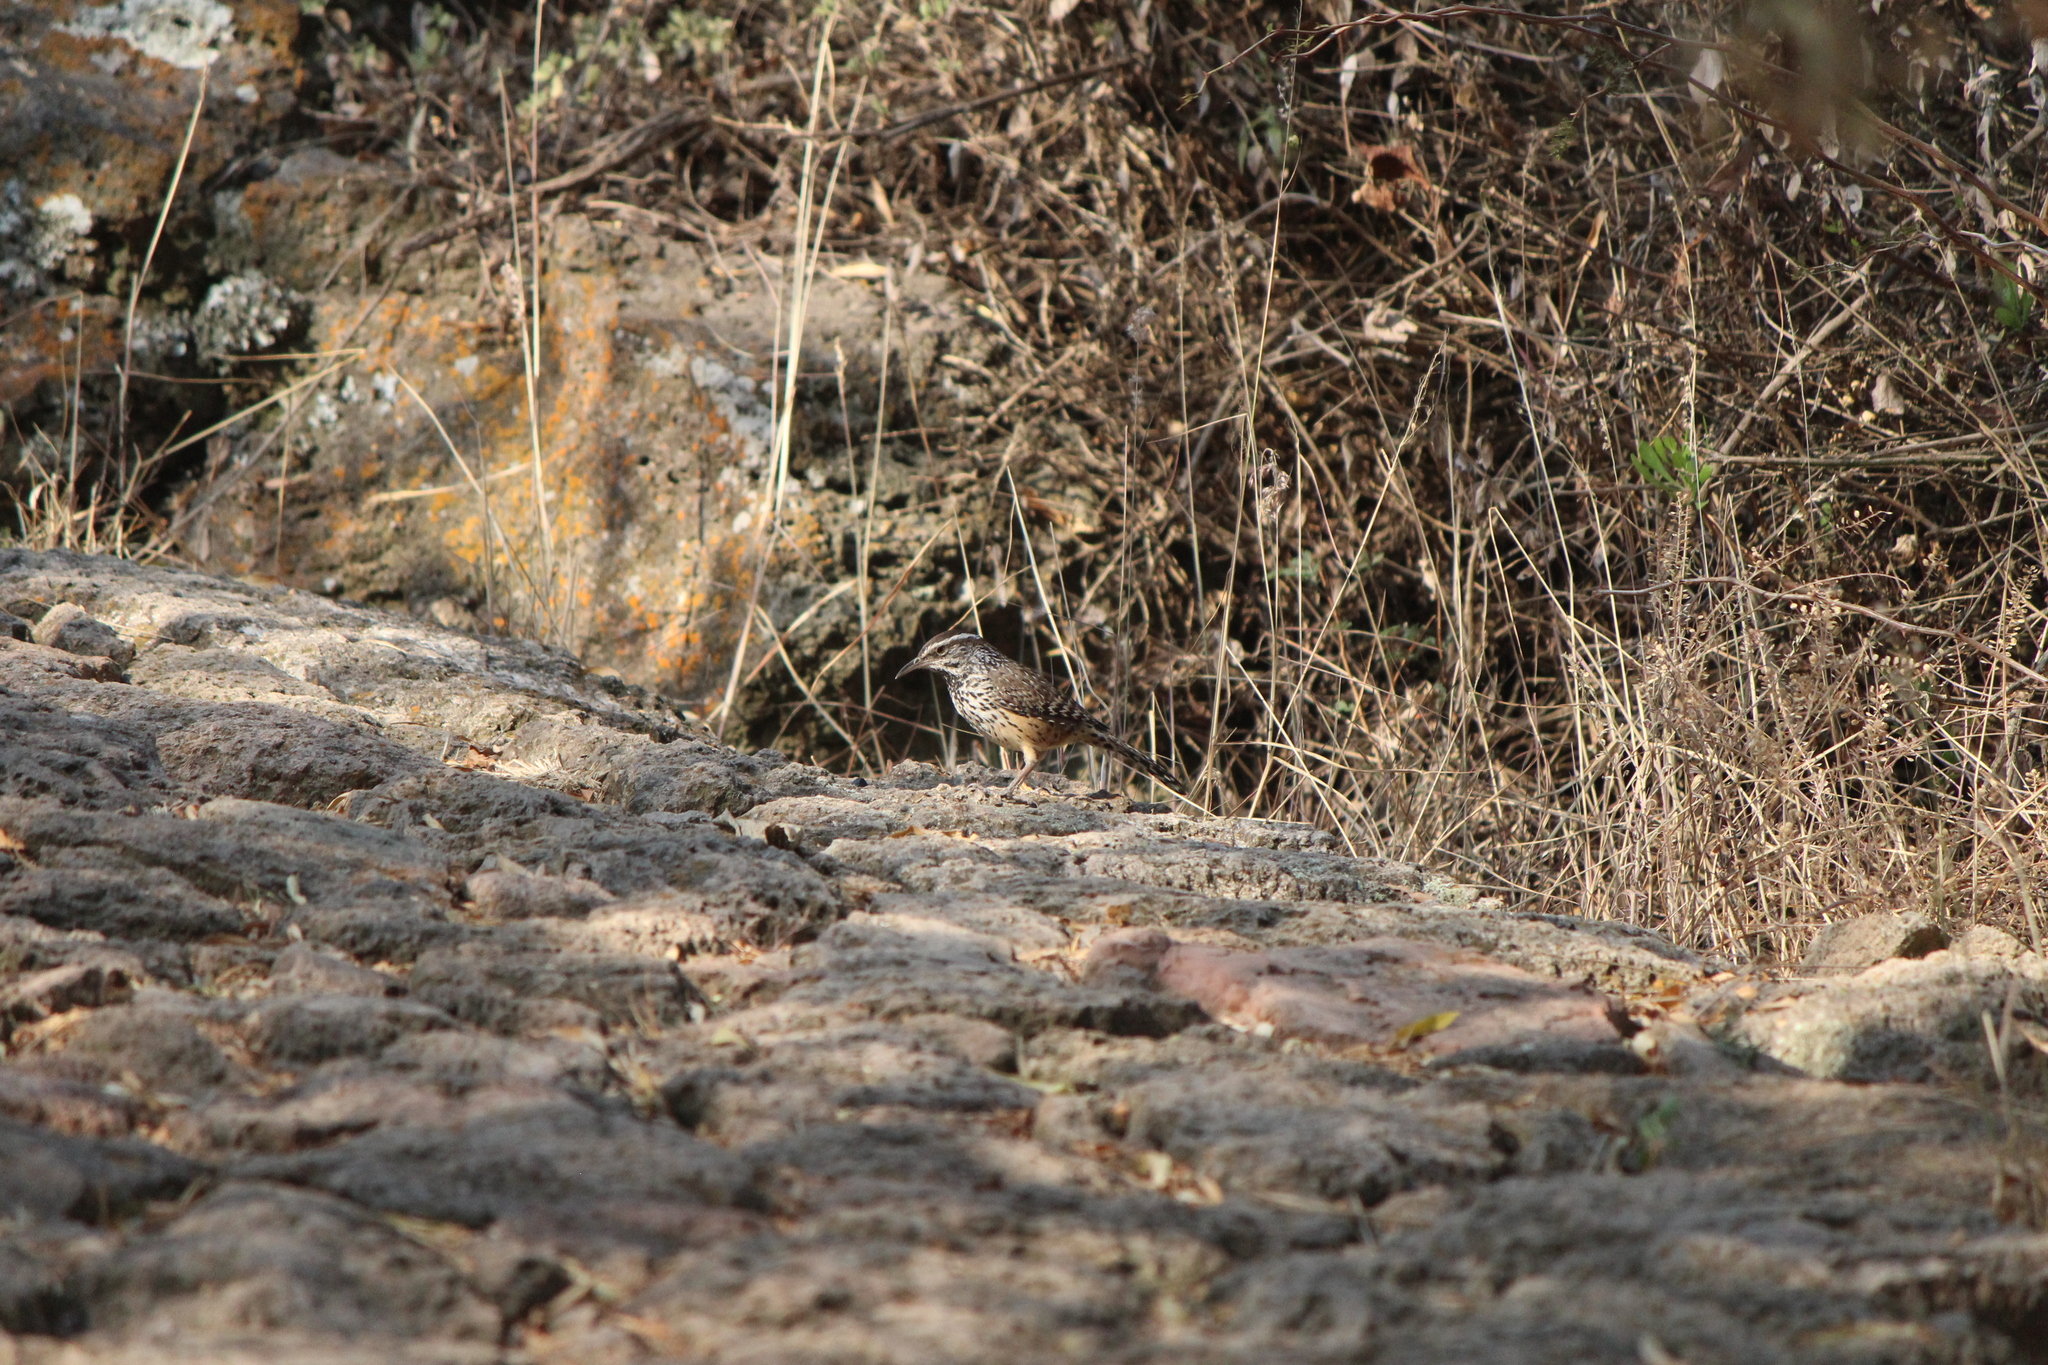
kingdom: Animalia
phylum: Chordata
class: Aves
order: Passeriformes
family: Troglodytidae
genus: Campylorhynchus
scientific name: Campylorhynchus brunneicapillus
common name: Cactus wren
